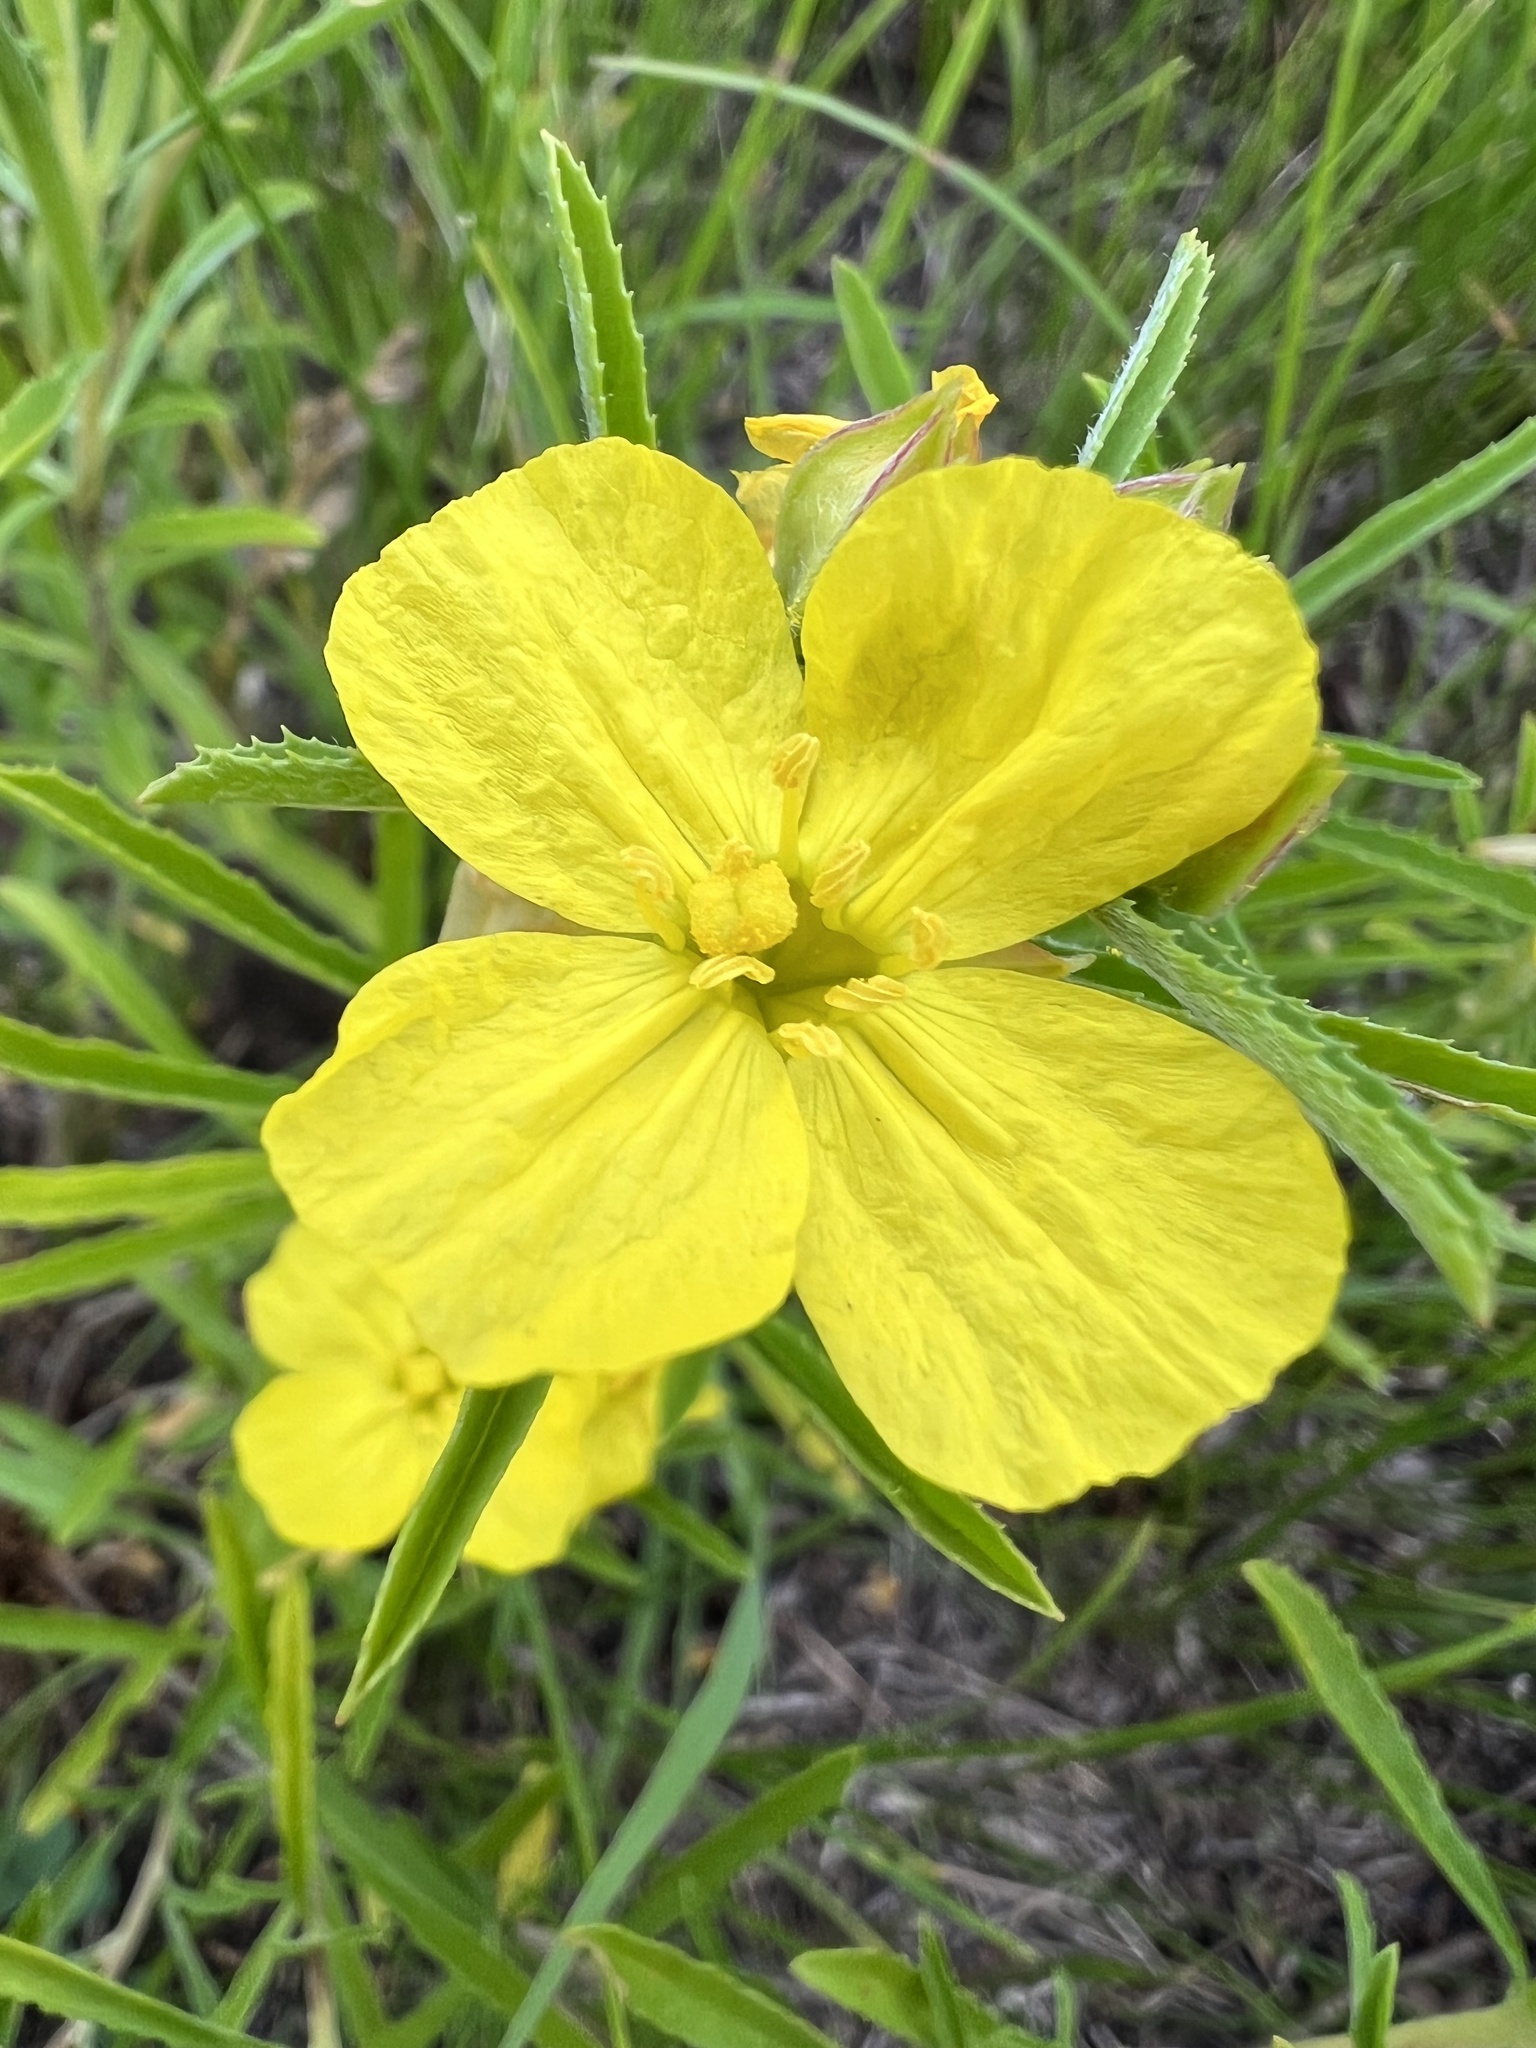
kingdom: Plantae
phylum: Tracheophyta
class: Magnoliopsida
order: Myrtales
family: Onagraceae
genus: Oenothera
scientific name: Oenothera serrulata
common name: Half-shrub calylophus
